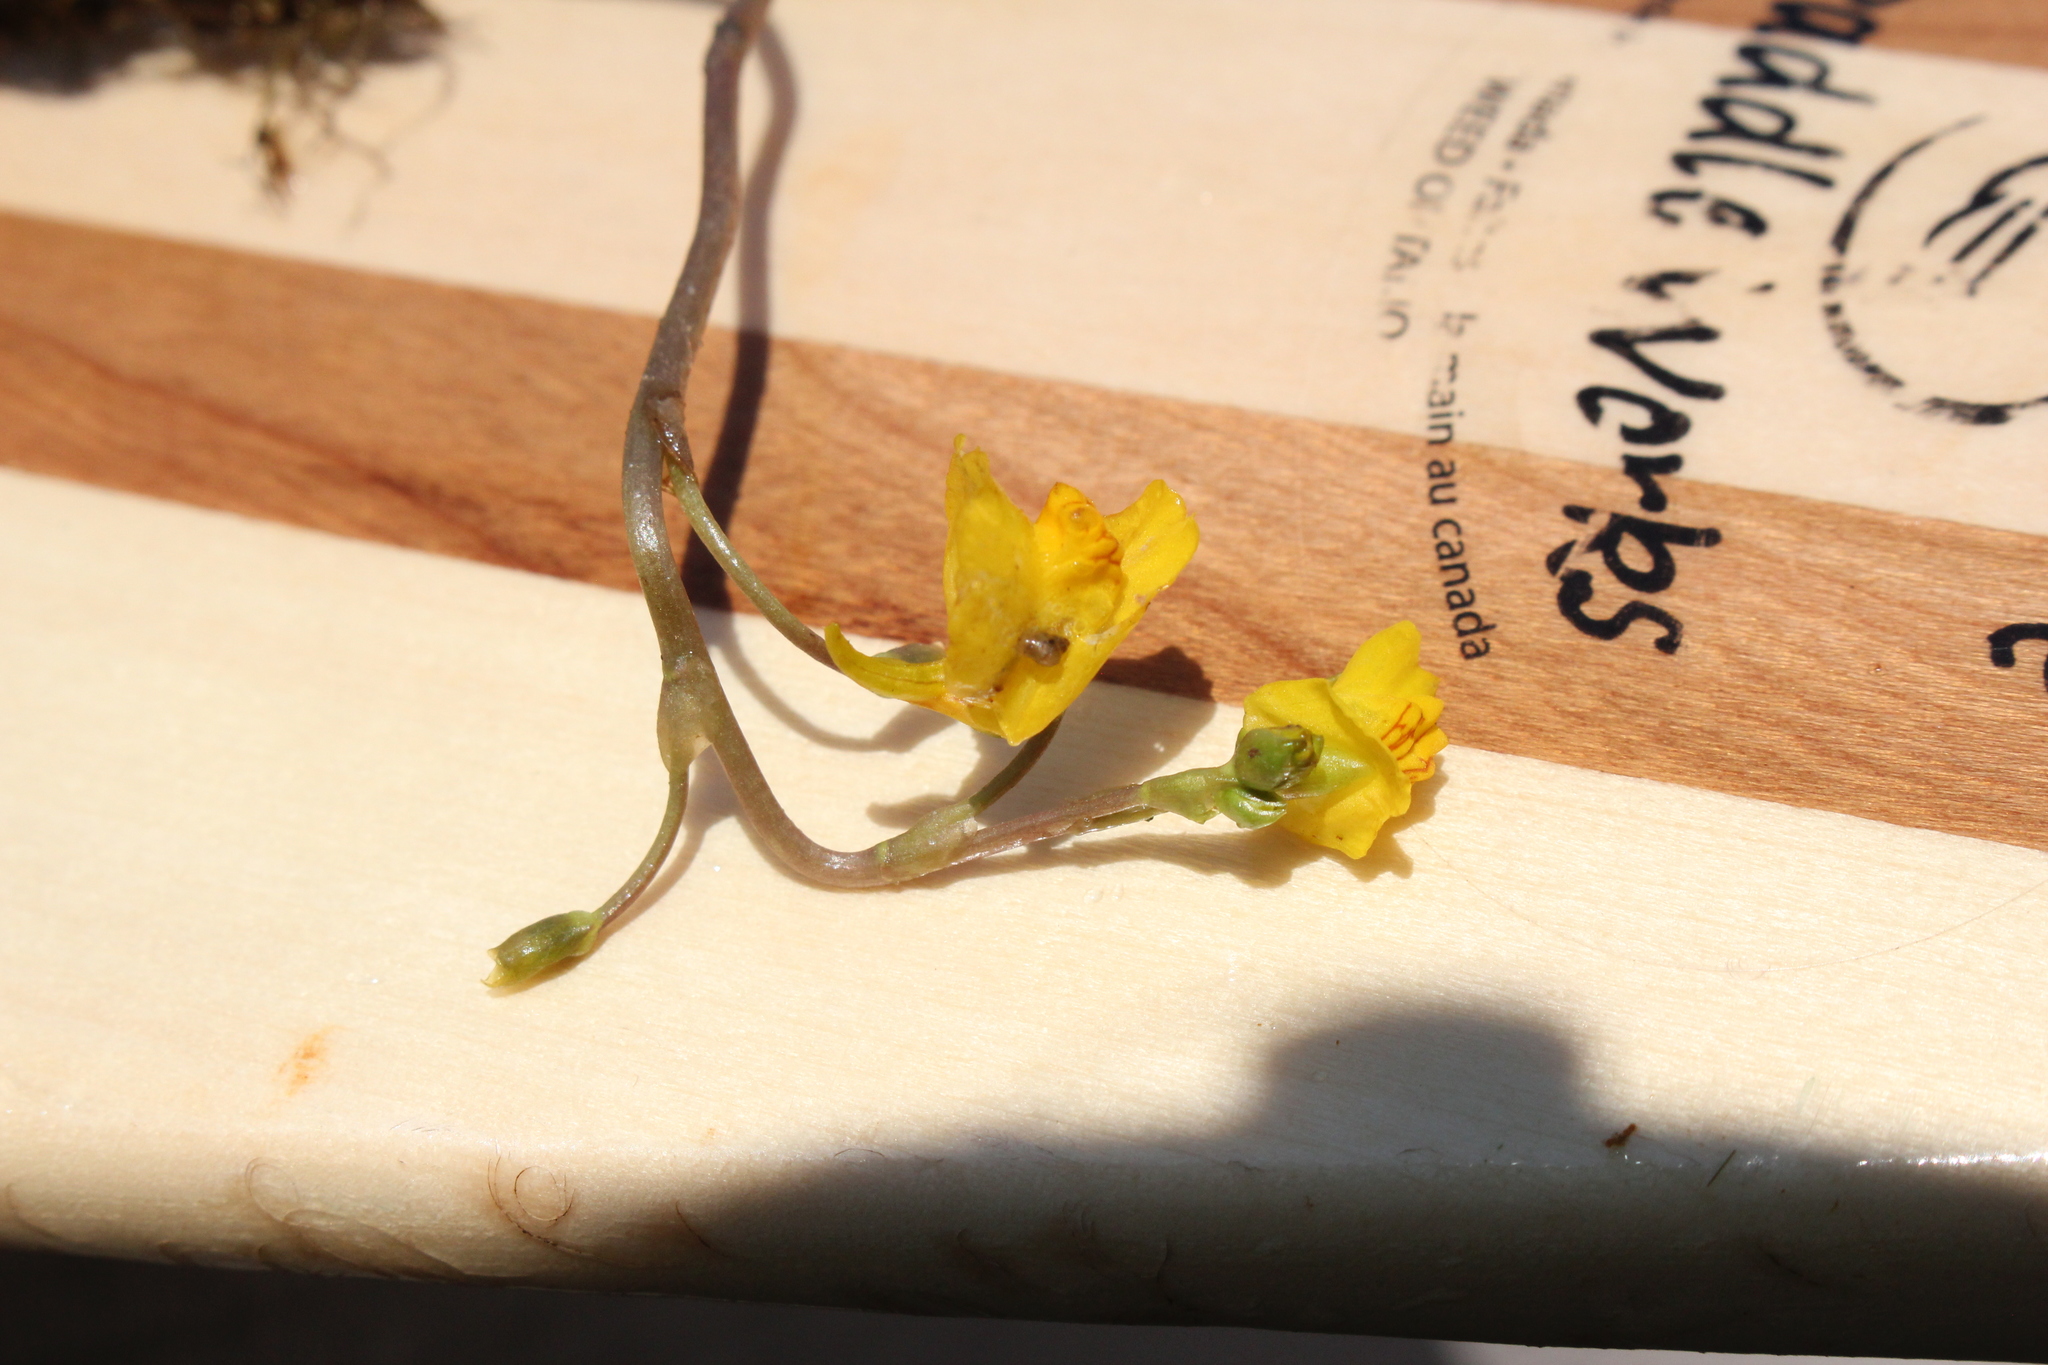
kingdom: Plantae
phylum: Tracheophyta
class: Magnoliopsida
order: Lamiales
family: Lentibulariaceae
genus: Utricularia
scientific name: Utricularia macrorhiza
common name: Common bladderwort
